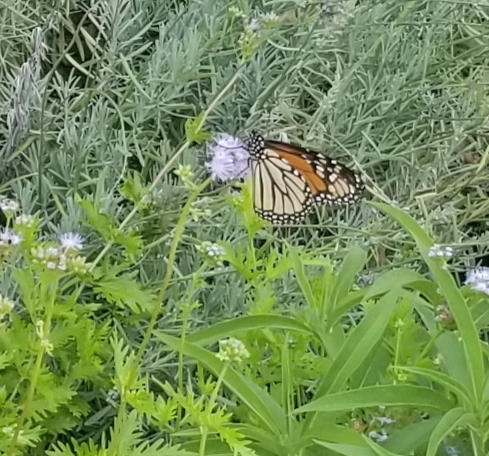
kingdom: Animalia
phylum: Arthropoda
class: Insecta
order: Lepidoptera
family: Nymphalidae
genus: Danaus
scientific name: Danaus plexippus
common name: Monarch
